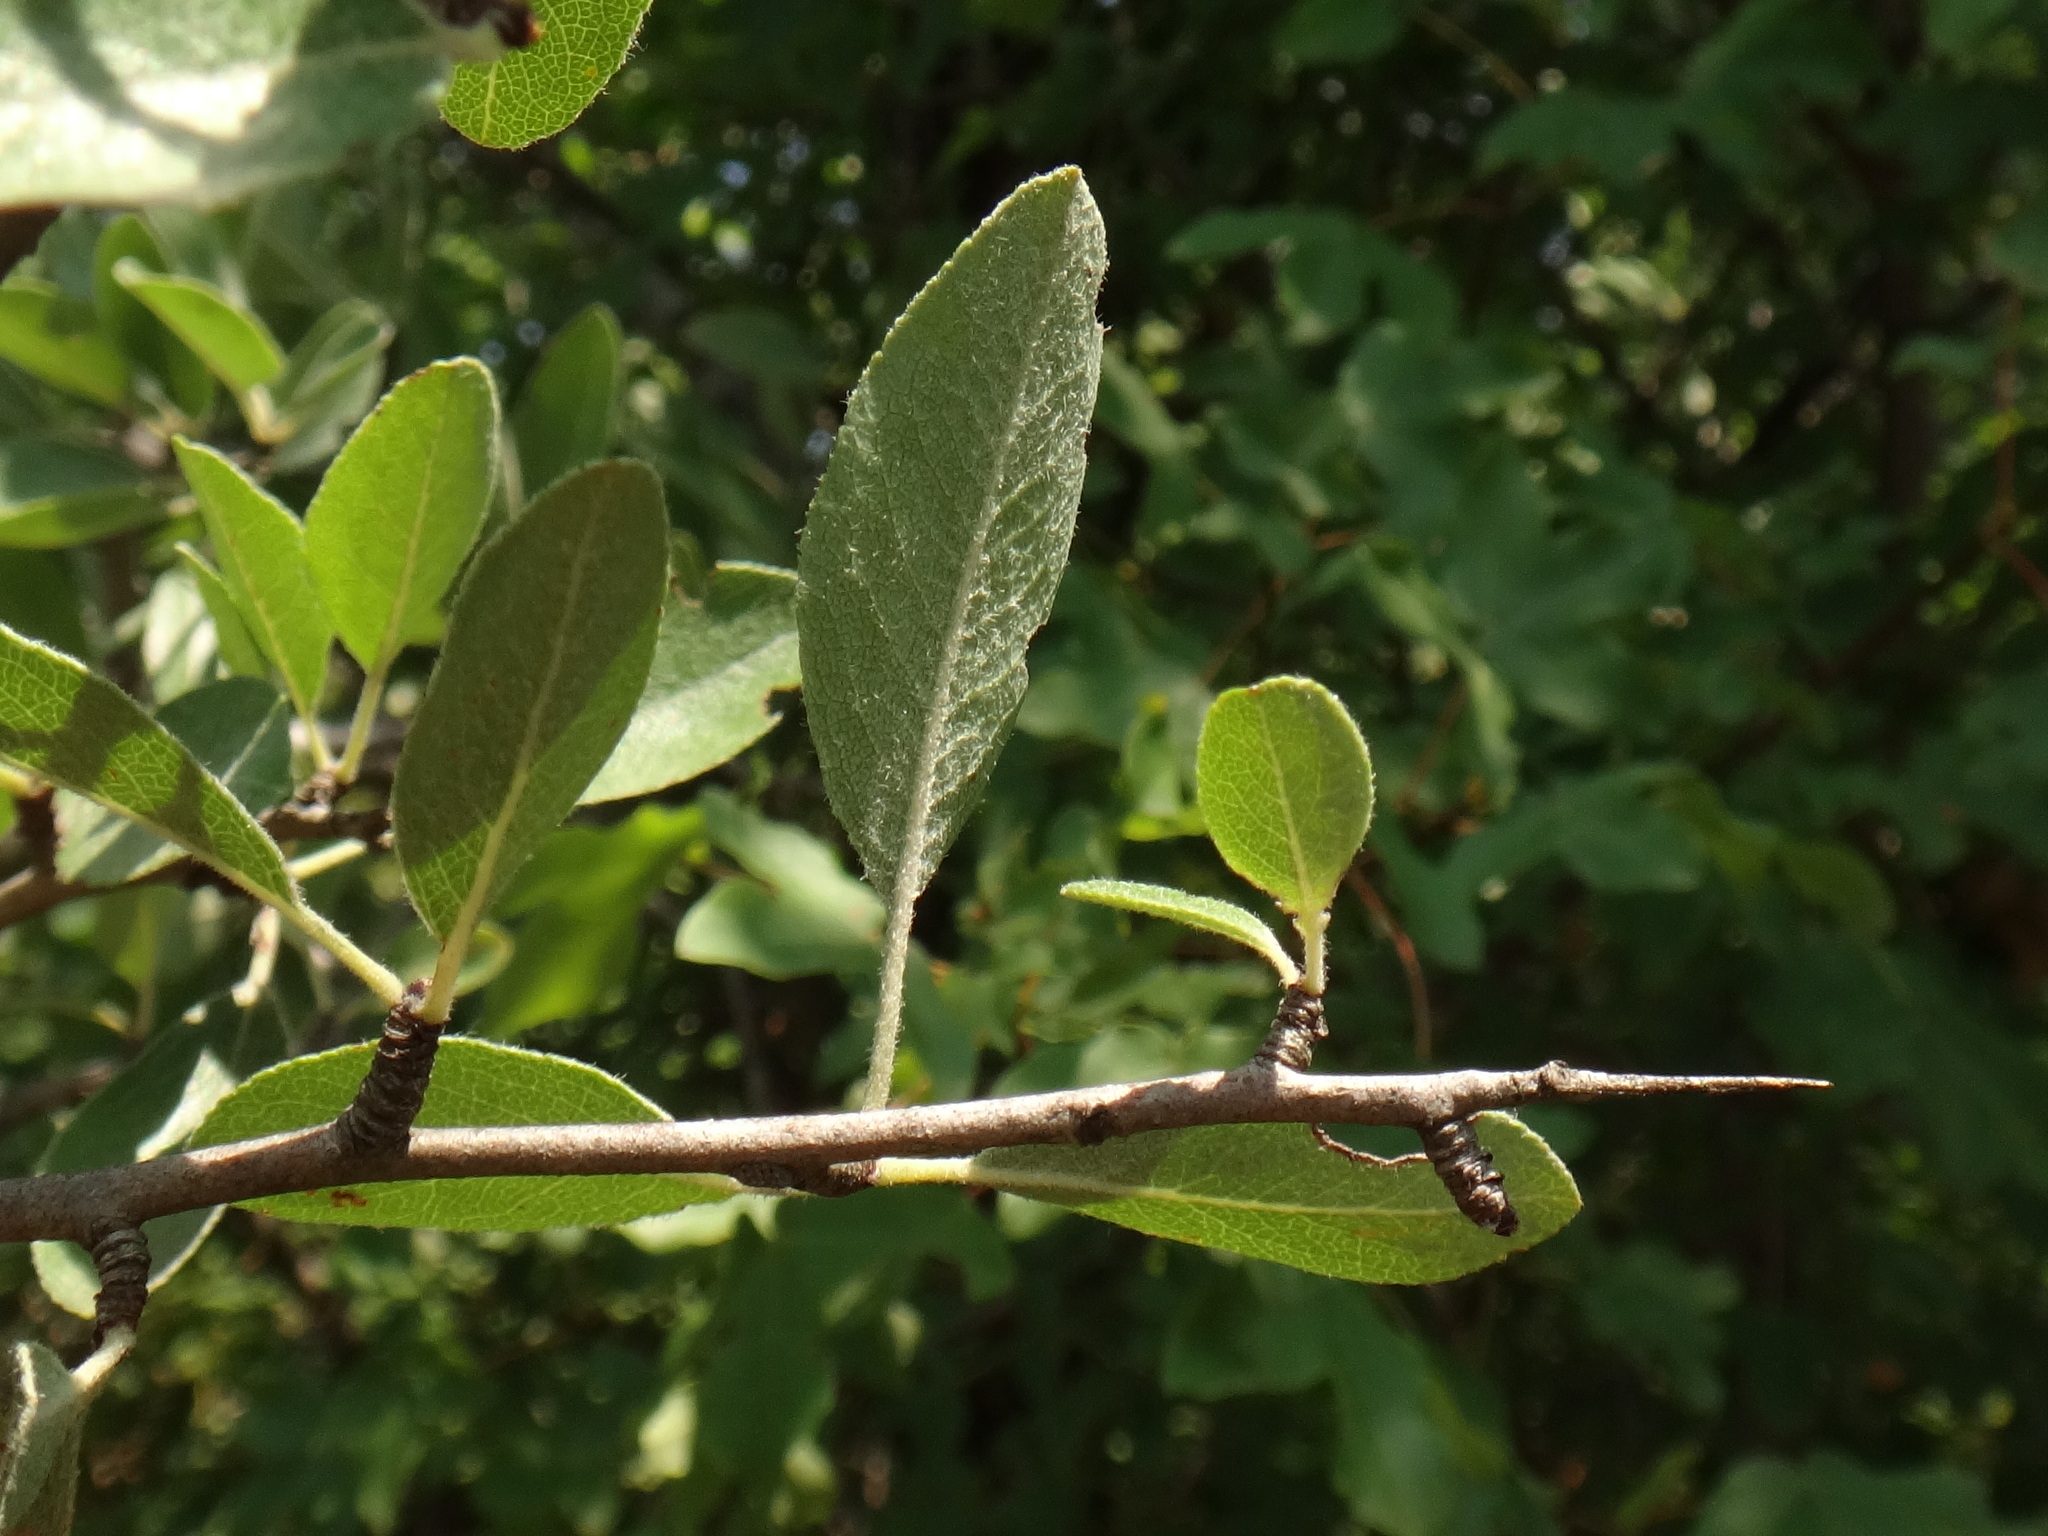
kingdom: Plantae
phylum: Tracheophyta
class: Magnoliopsida
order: Rosales
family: Rosaceae
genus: Pyrus
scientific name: Pyrus spinosa
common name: Almond-leaf pear
